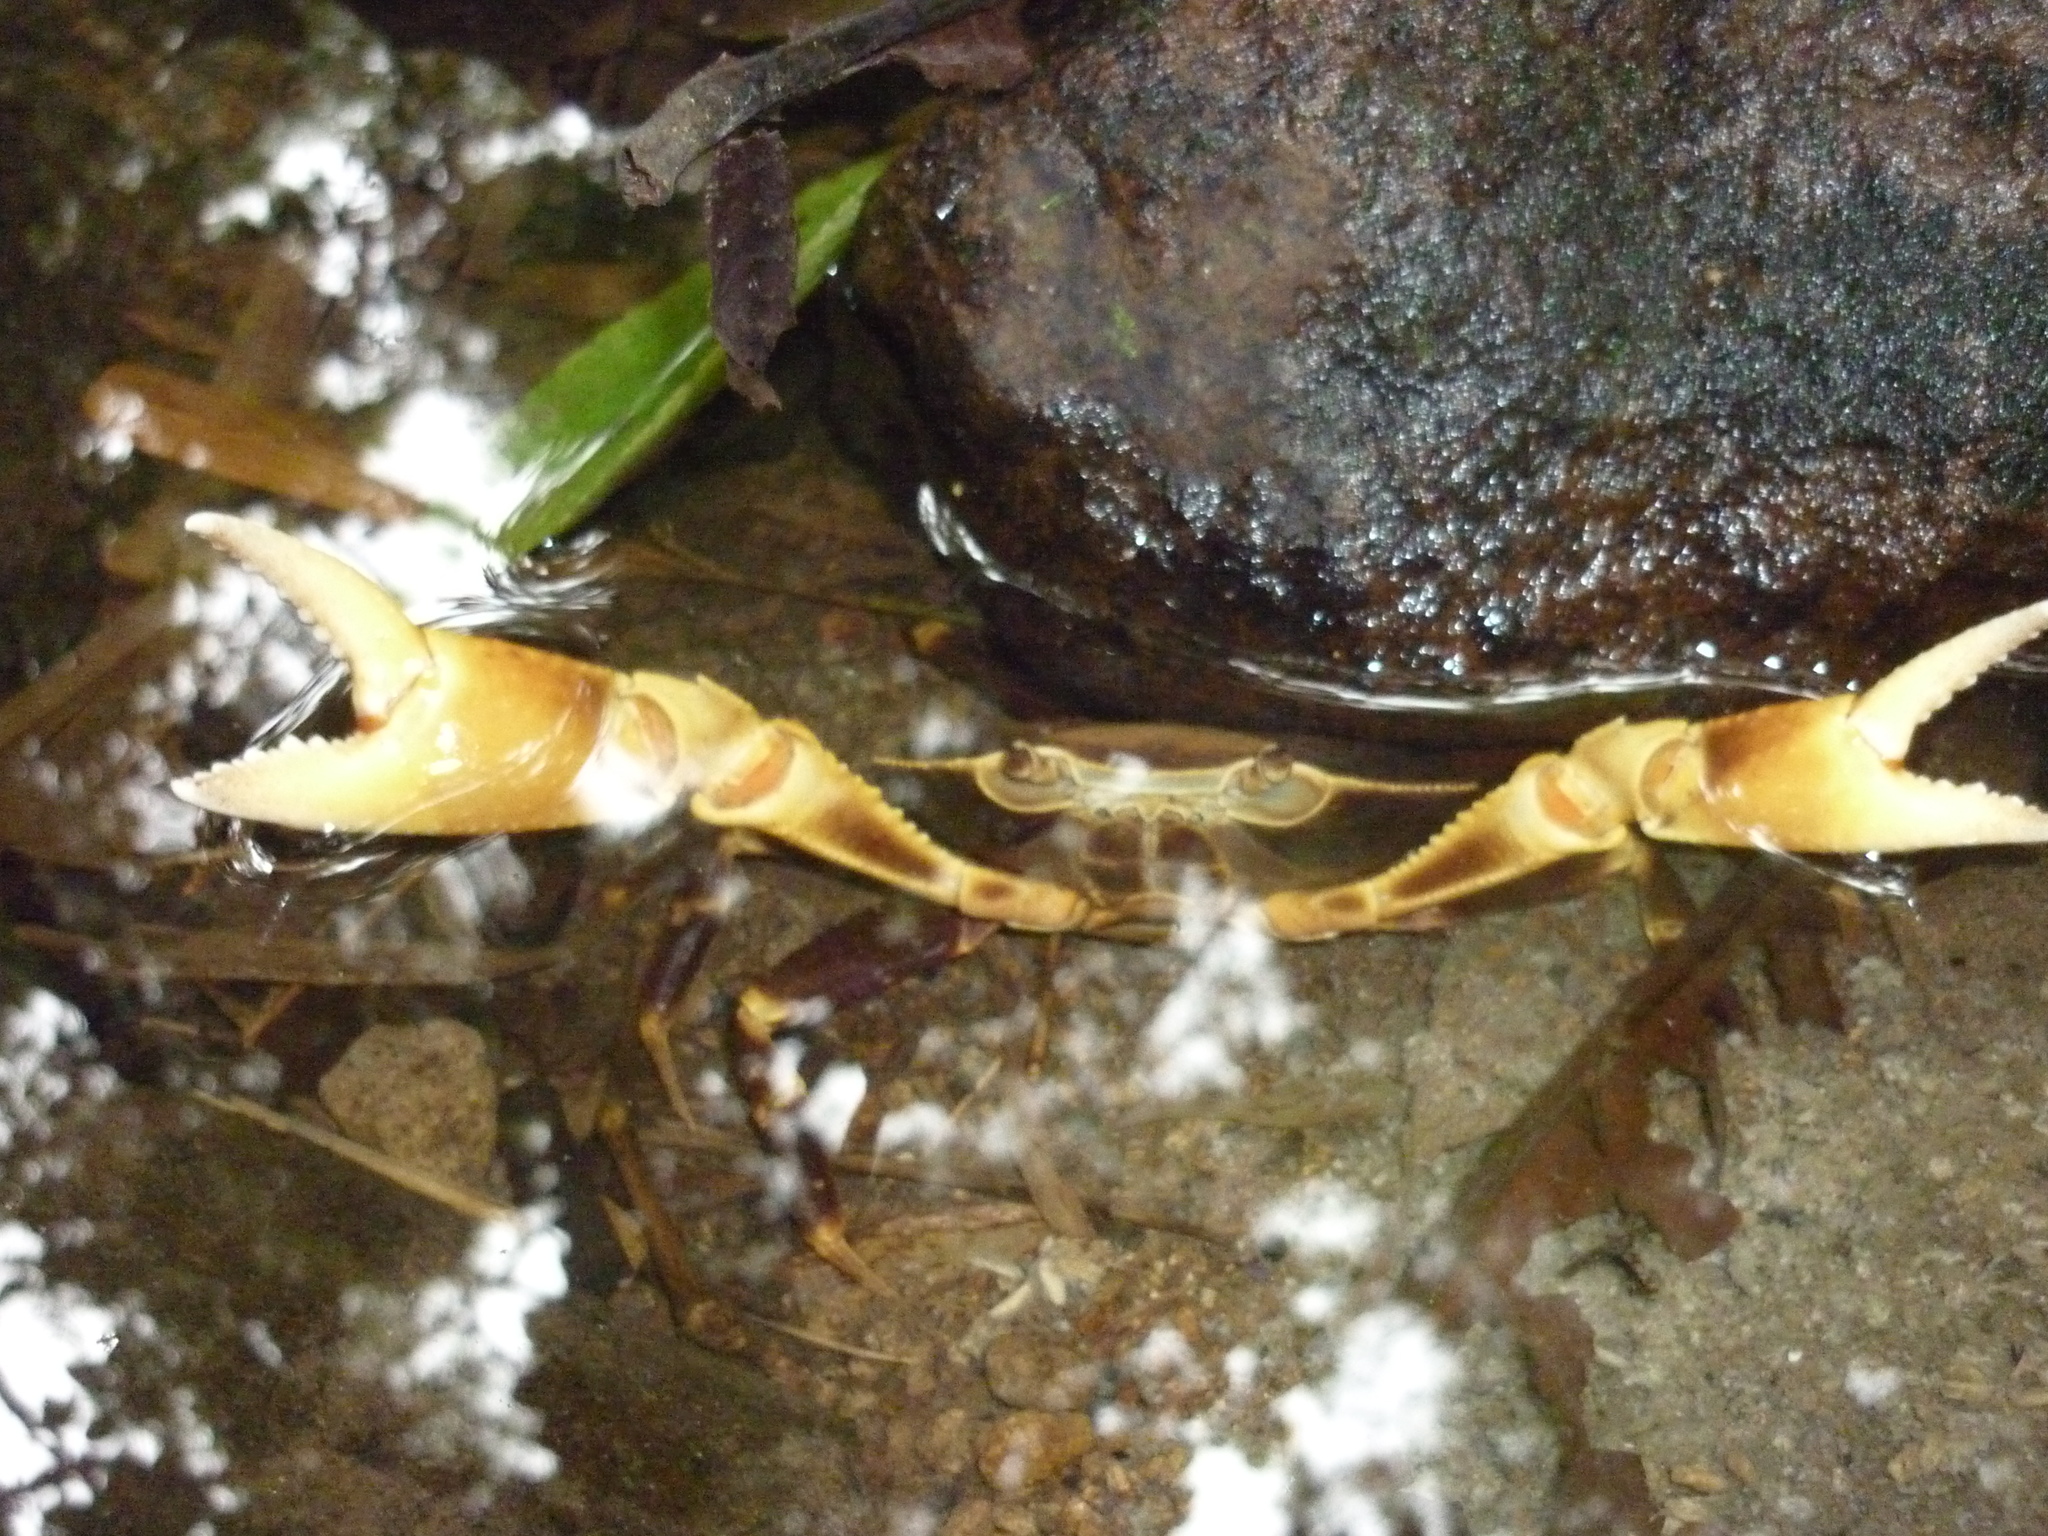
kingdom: Animalia
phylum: Arthropoda
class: Malacostraca
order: Decapoda
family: Pseudothelphusidae
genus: Guinotia
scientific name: Guinotia dentata
